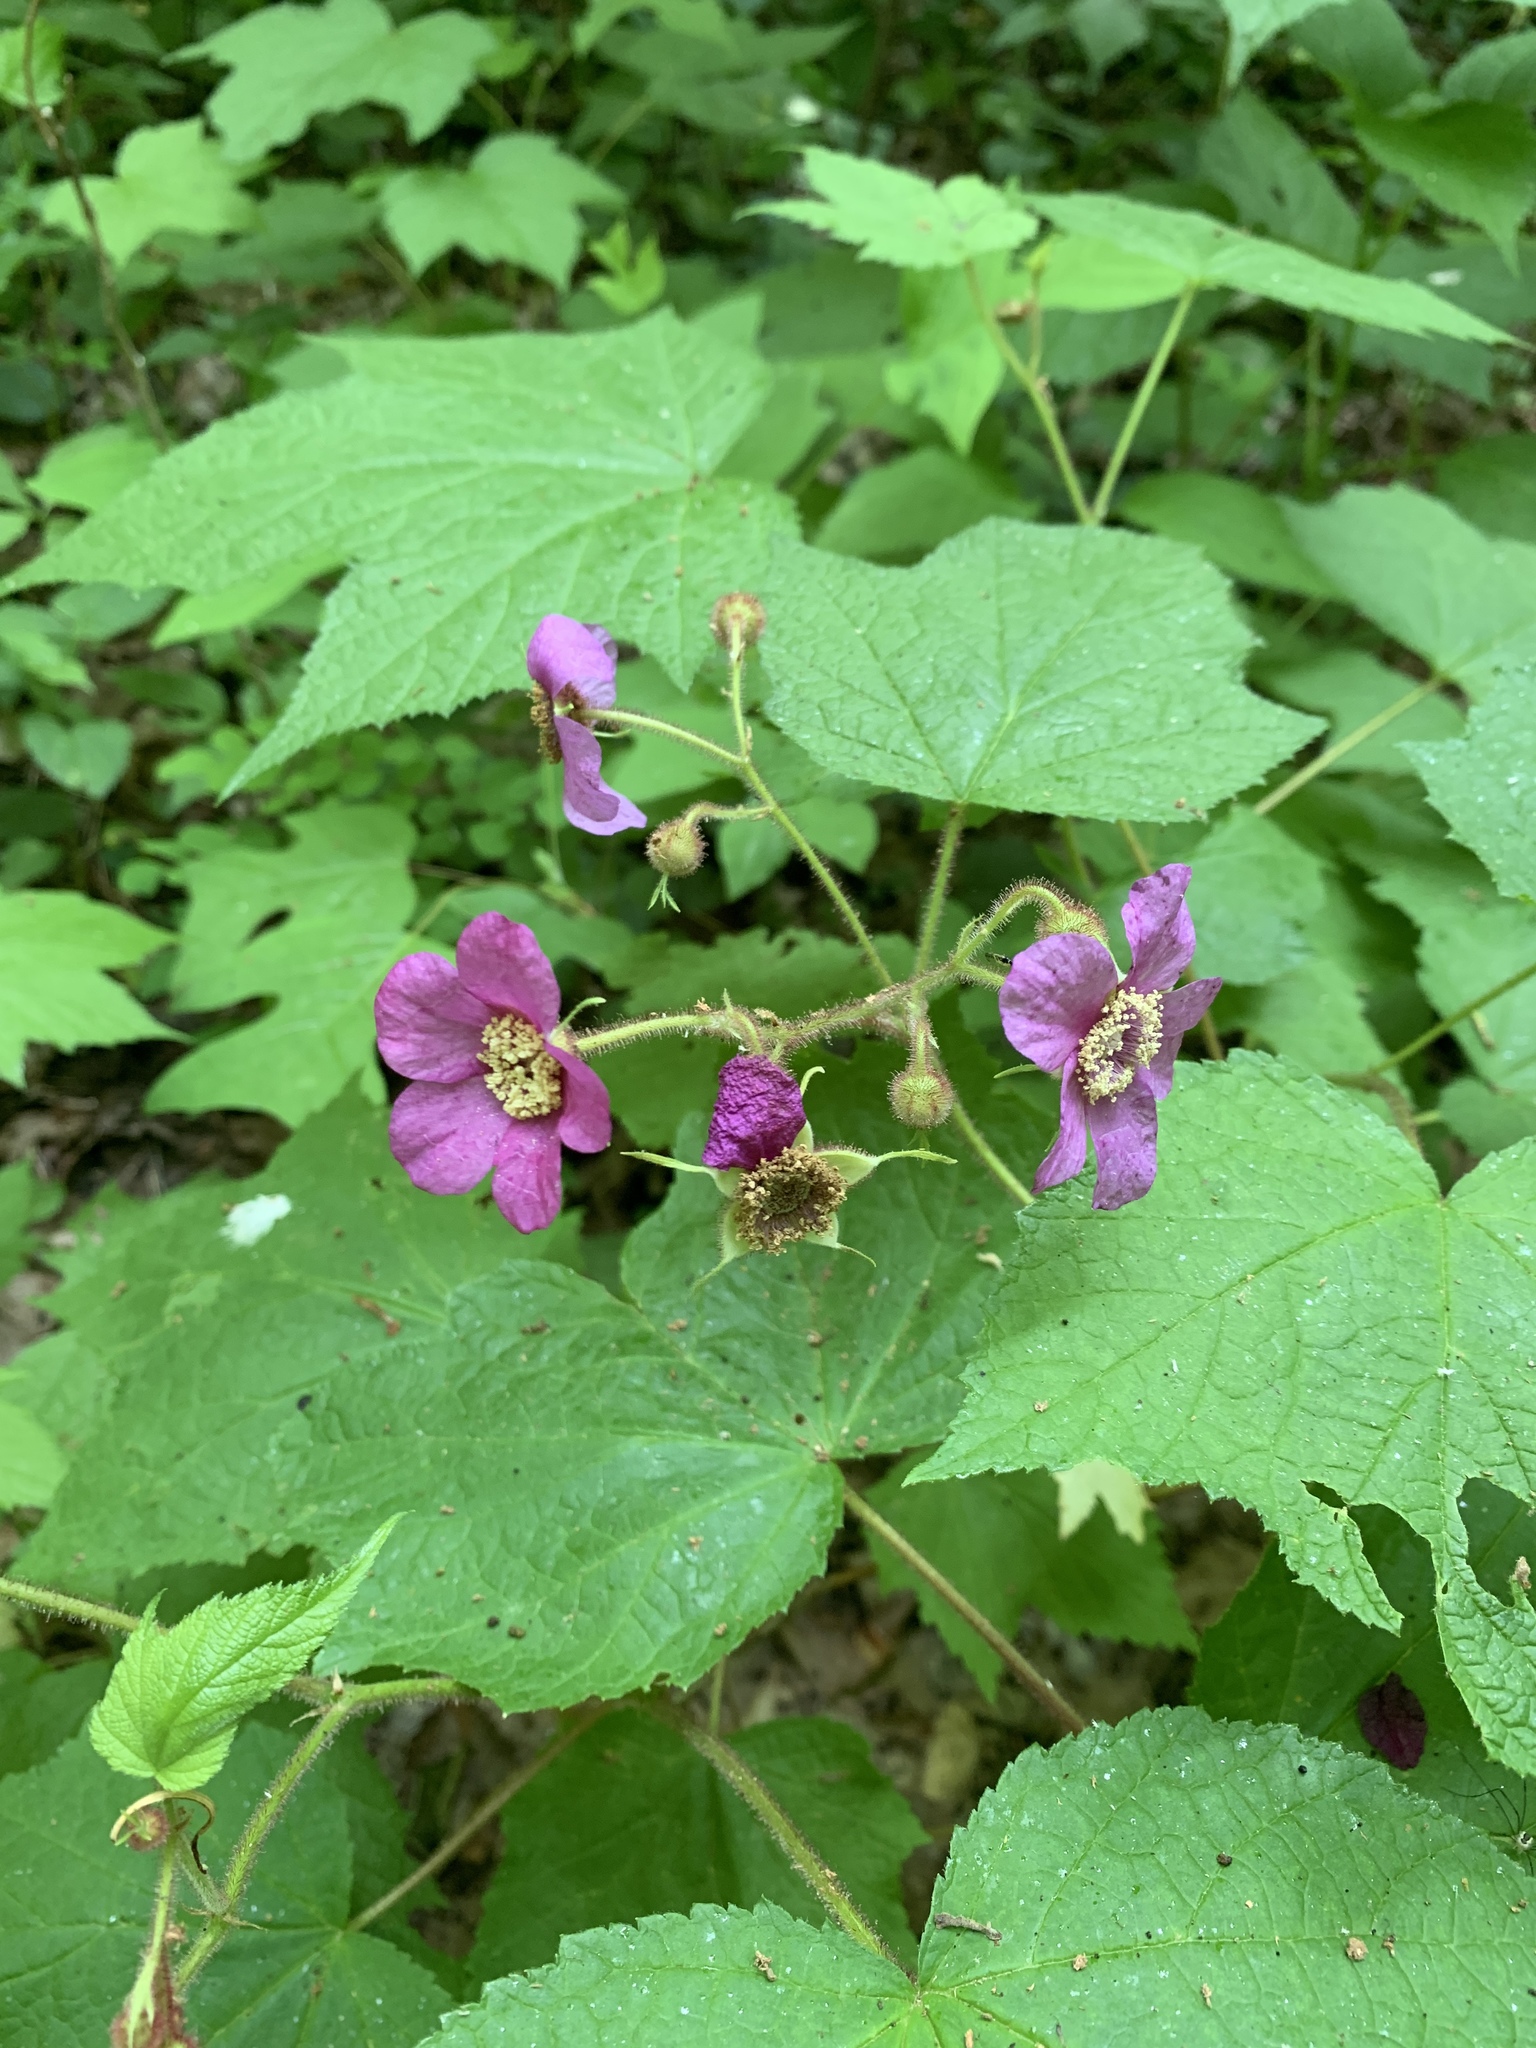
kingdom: Plantae
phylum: Tracheophyta
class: Magnoliopsida
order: Rosales
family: Rosaceae
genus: Rubus
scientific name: Rubus odoratus
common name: Purple-flowered raspberry
